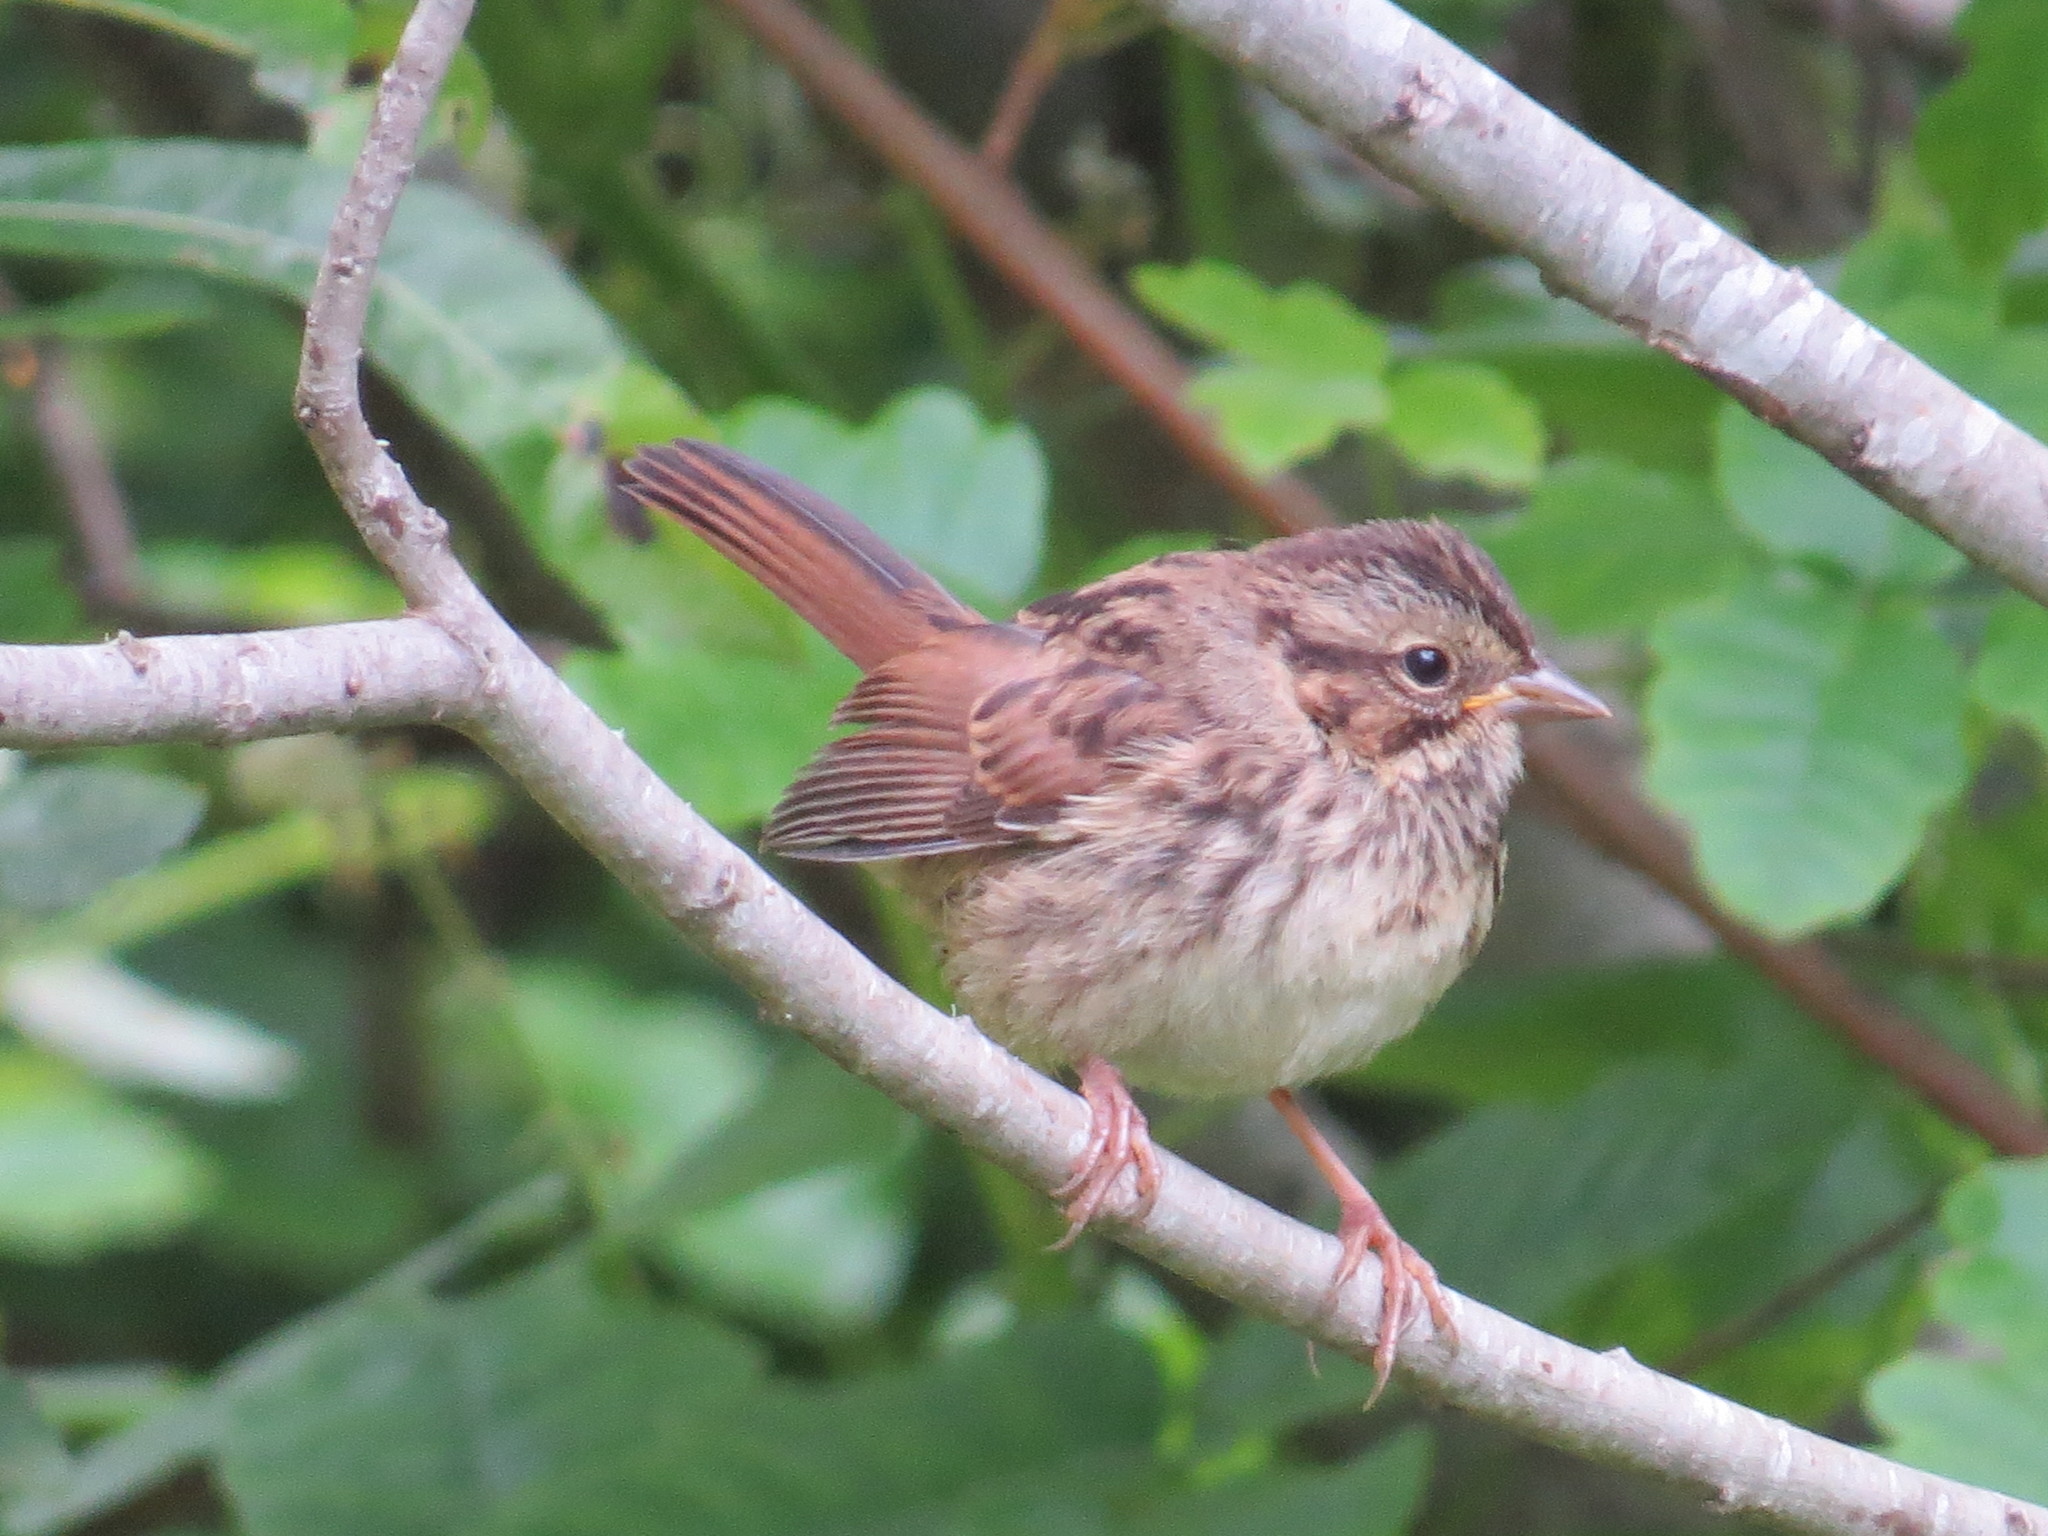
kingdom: Animalia
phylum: Chordata
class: Aves
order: Passeriformes
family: Passerellidae
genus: Melospiza
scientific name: Melospiza melodia
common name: Song sparrow
